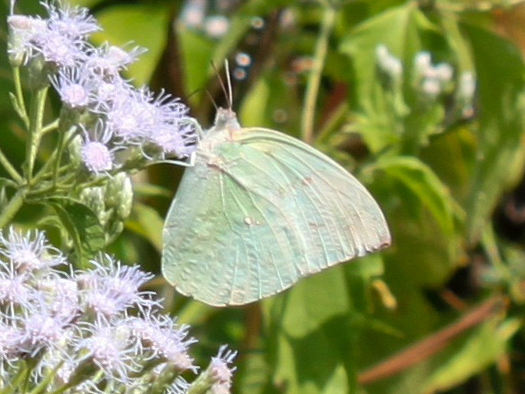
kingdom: Animalia
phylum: Arthropoda
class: Insecta
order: Lepidoptera
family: Pieridae
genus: Catopsilia
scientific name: Catopsilia pomona
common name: Common emigrant
